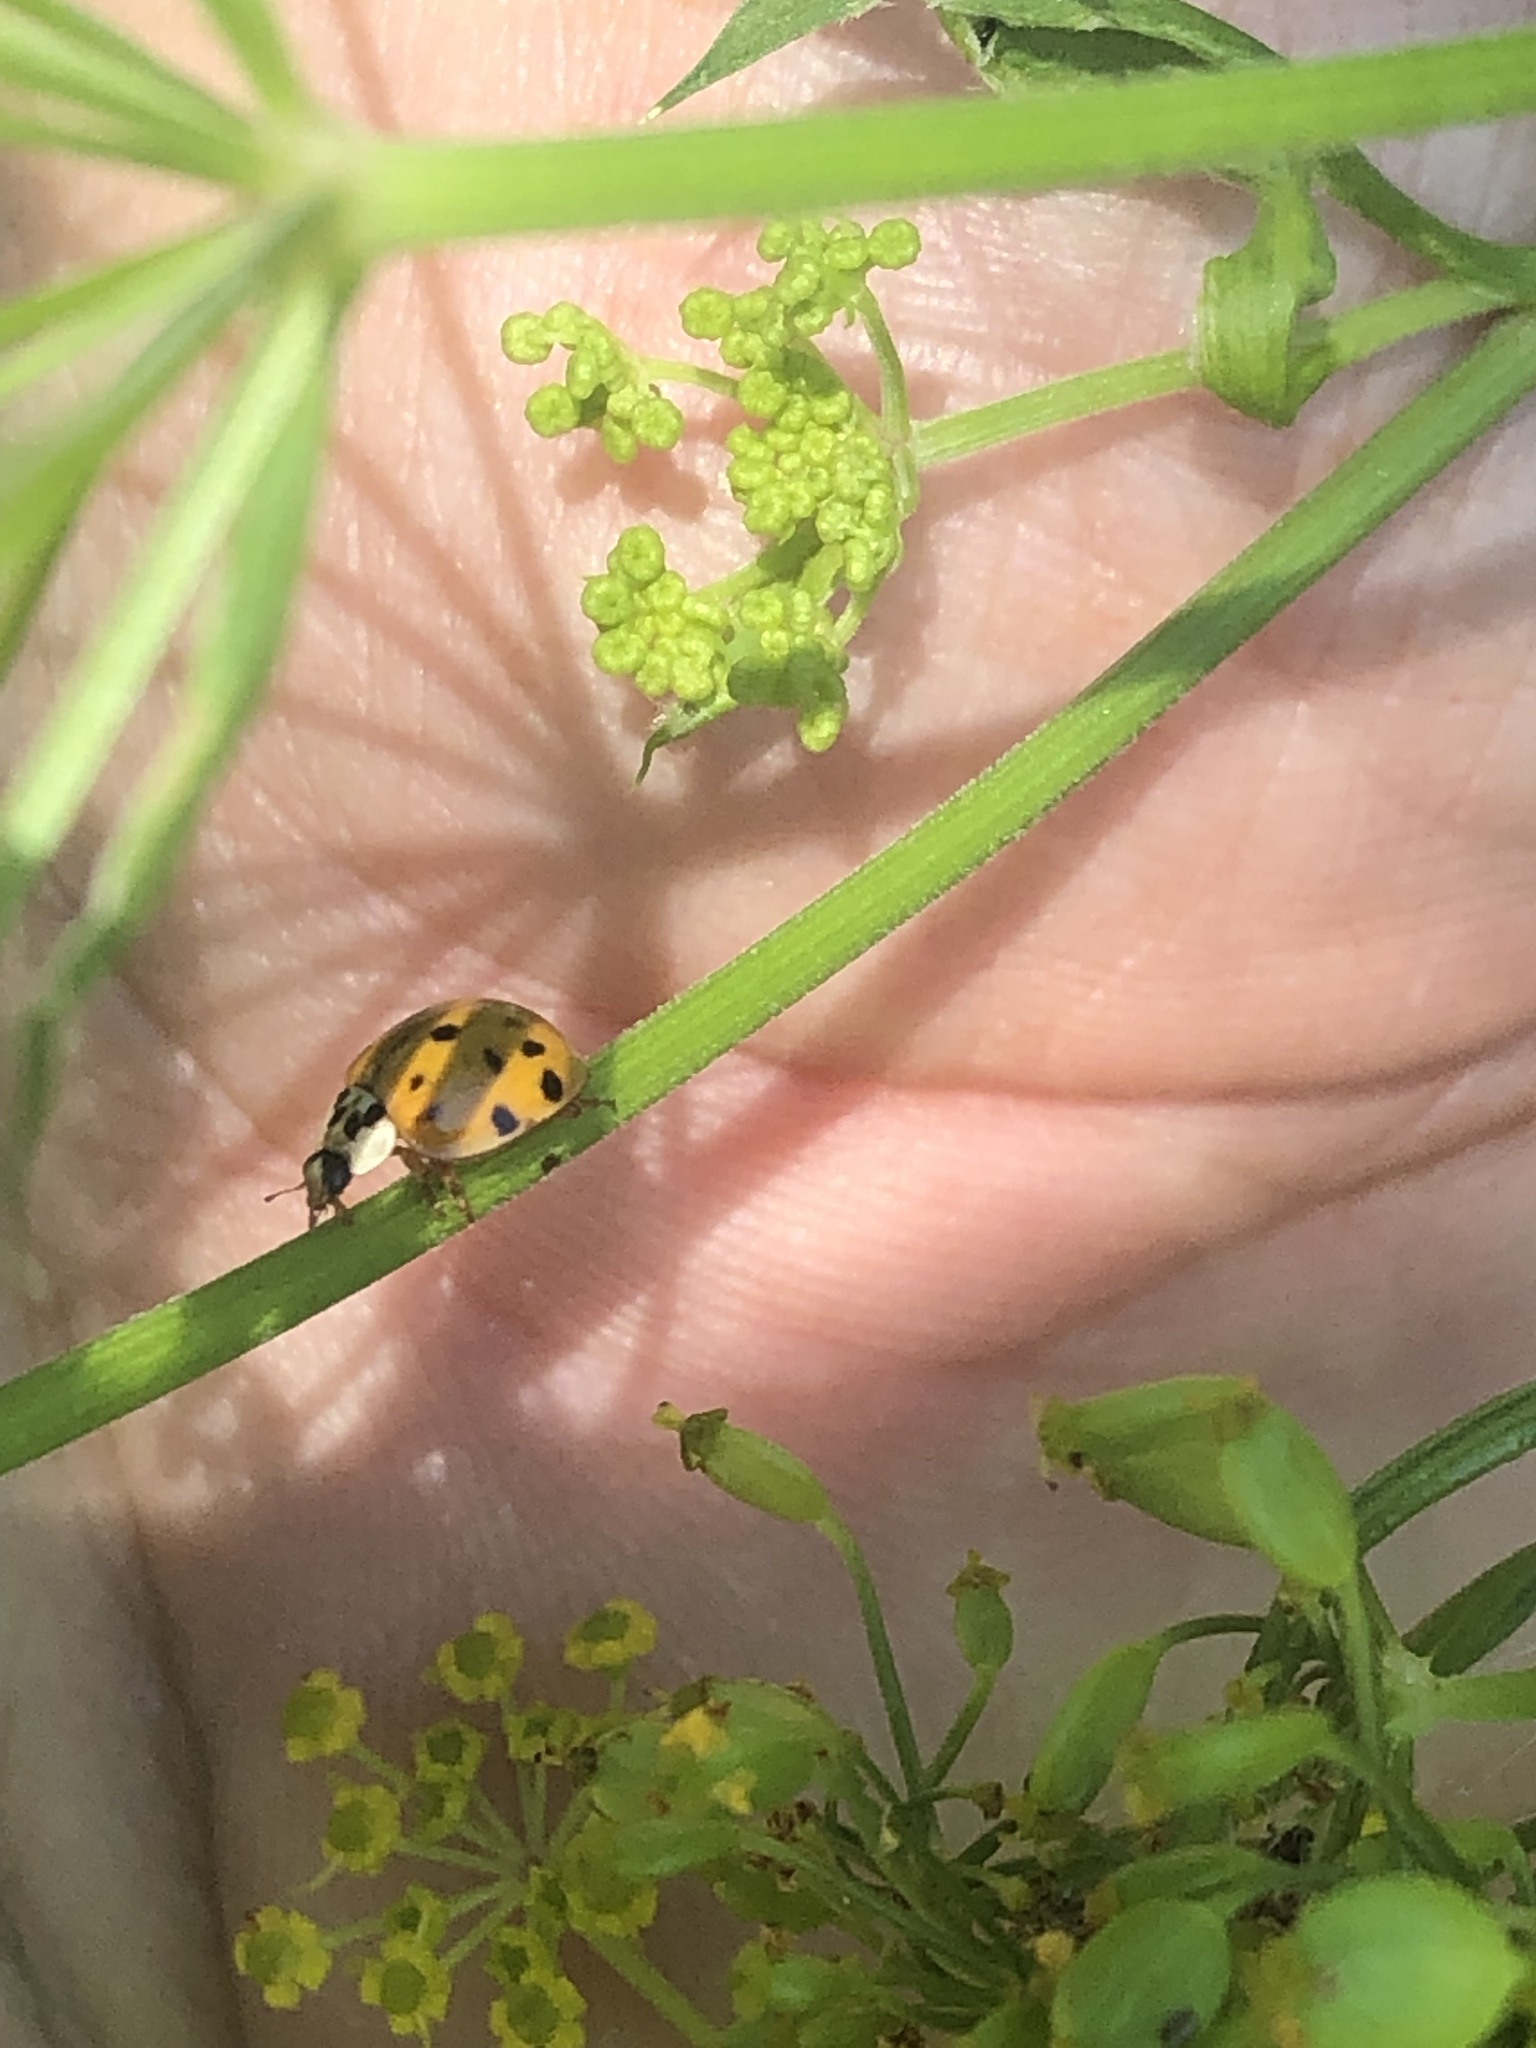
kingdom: Animalia
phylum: Arthropoda
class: Insecta
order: Coleoptera
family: Coccinellidae
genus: Harmonia
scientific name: Harmonia axyridis
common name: Harlequin ladybird
